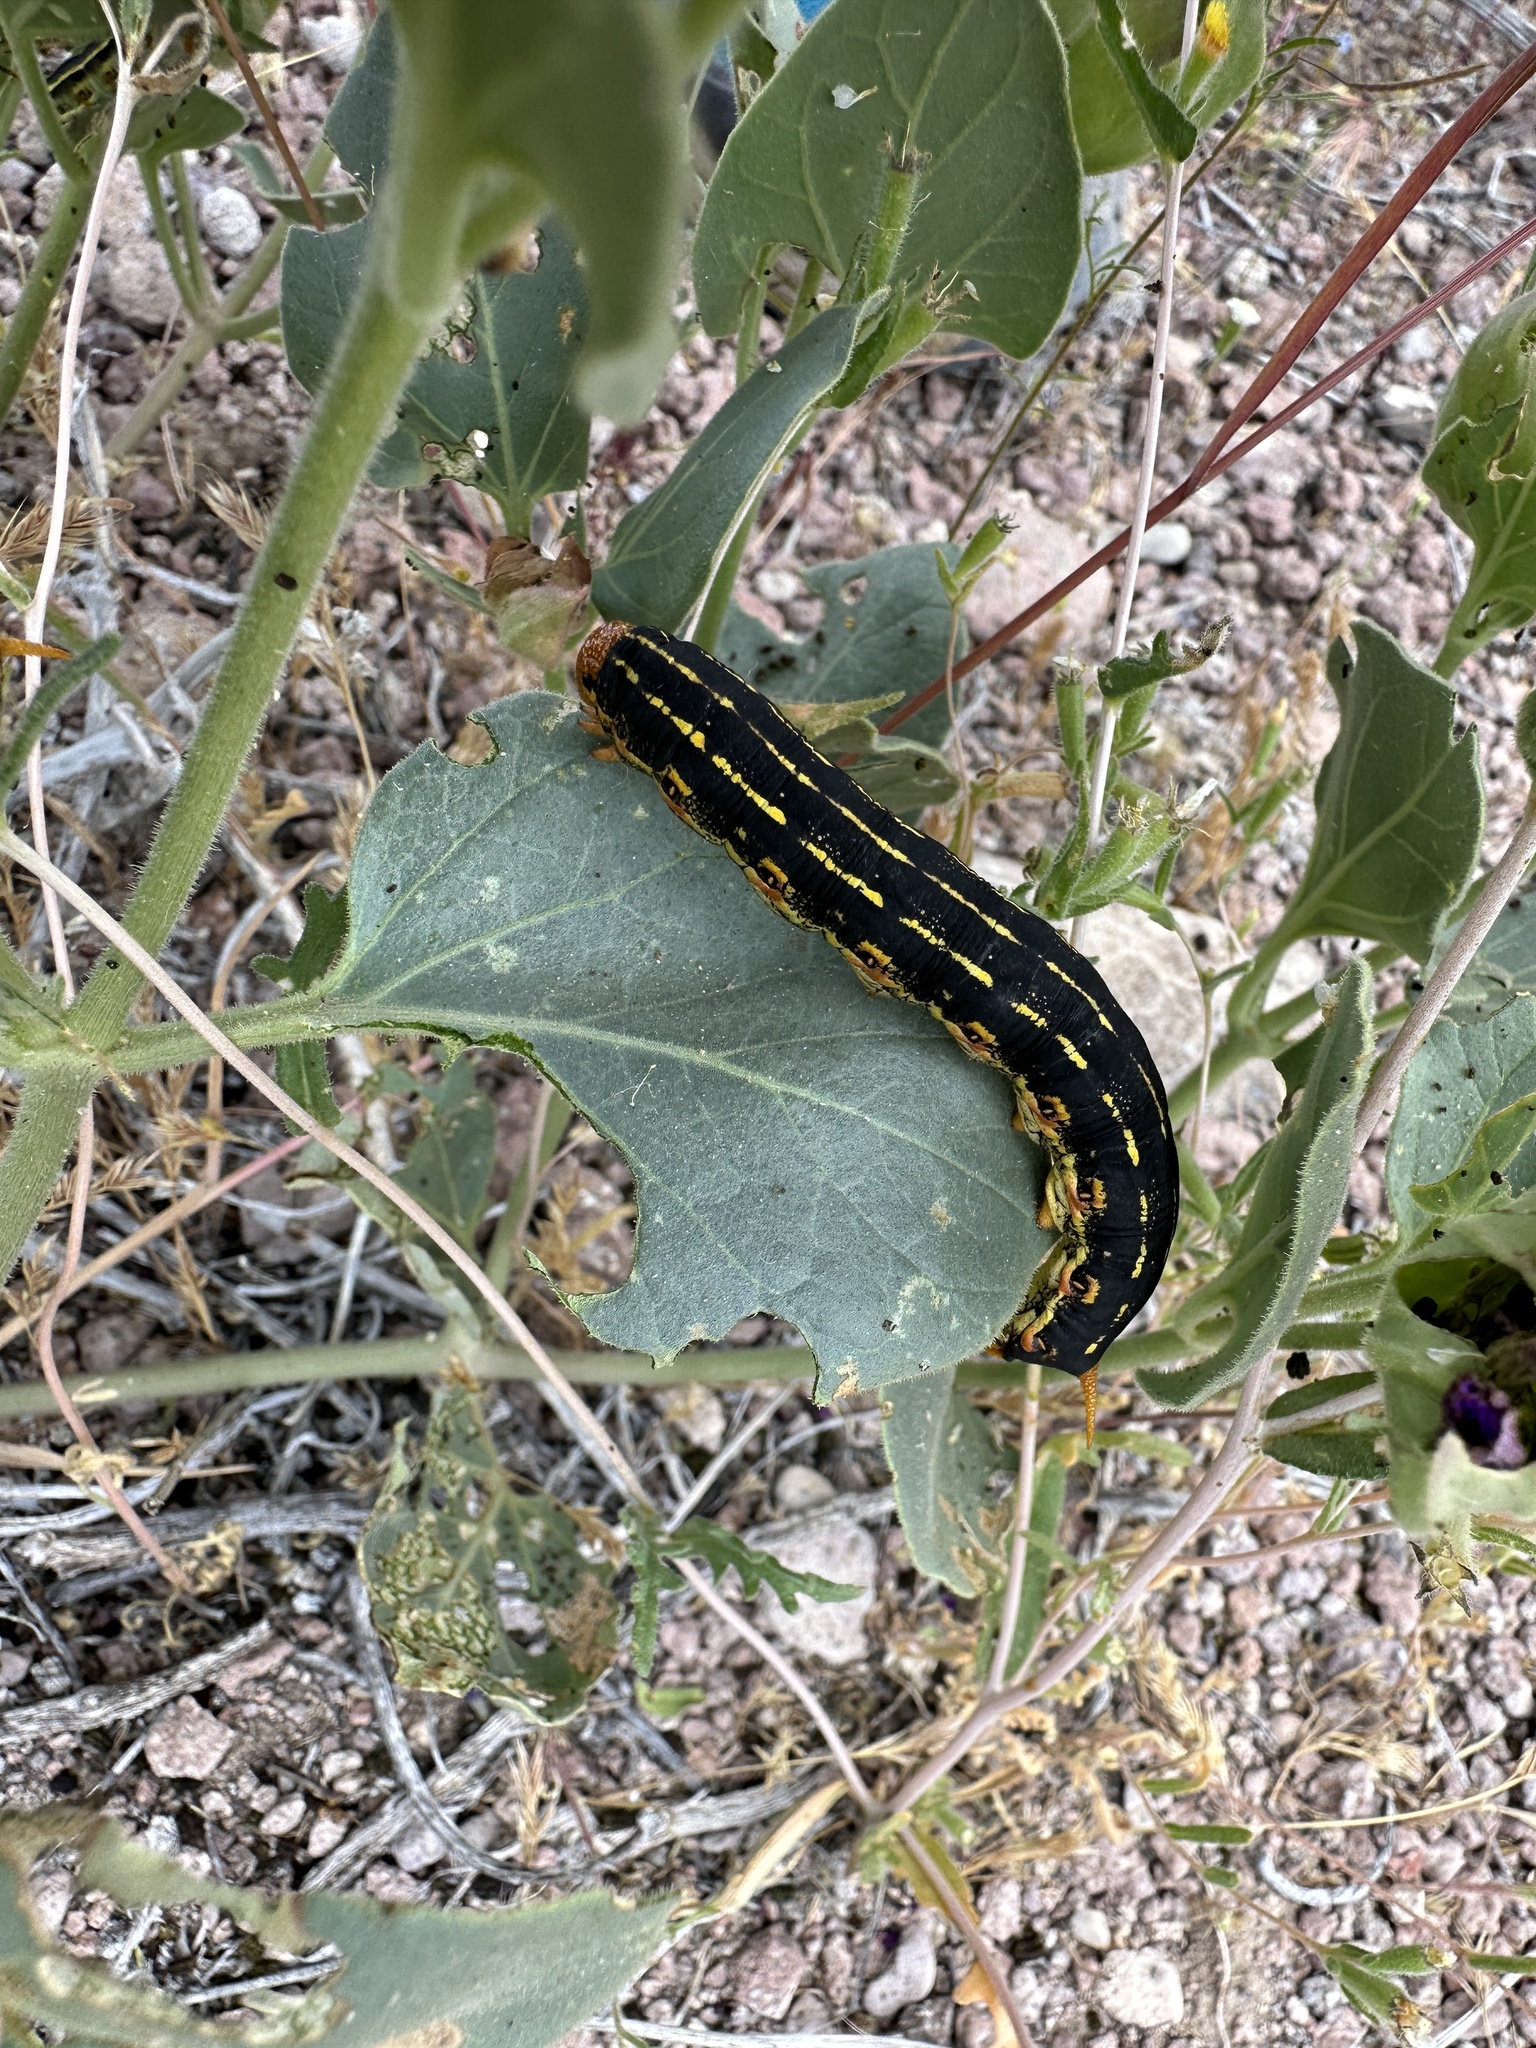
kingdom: Animalia
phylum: Arthropoda
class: Insecta
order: Lepidoptera
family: Sphingidae
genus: Hyles
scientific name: Hyles lineata
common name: White-lined sphinx
